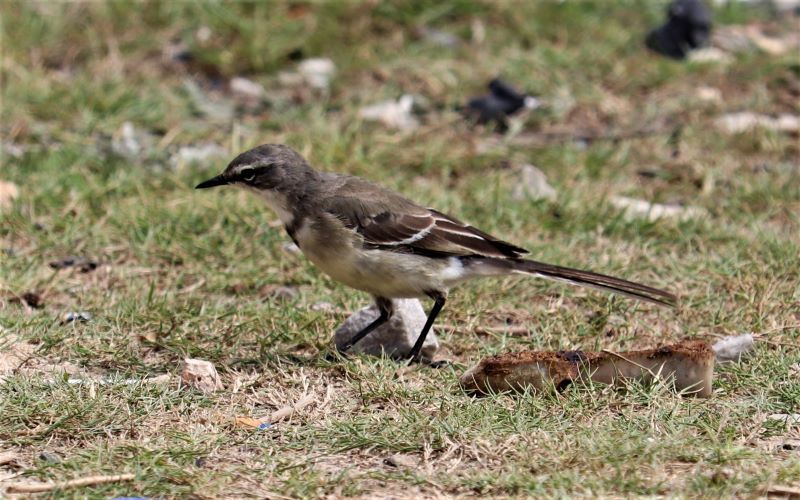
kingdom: Animalia
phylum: Chordata
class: Aves
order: Passeriformes
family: Motacillidae
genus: Motacilla
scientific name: Motacilla capensis
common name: Cape wagtail
